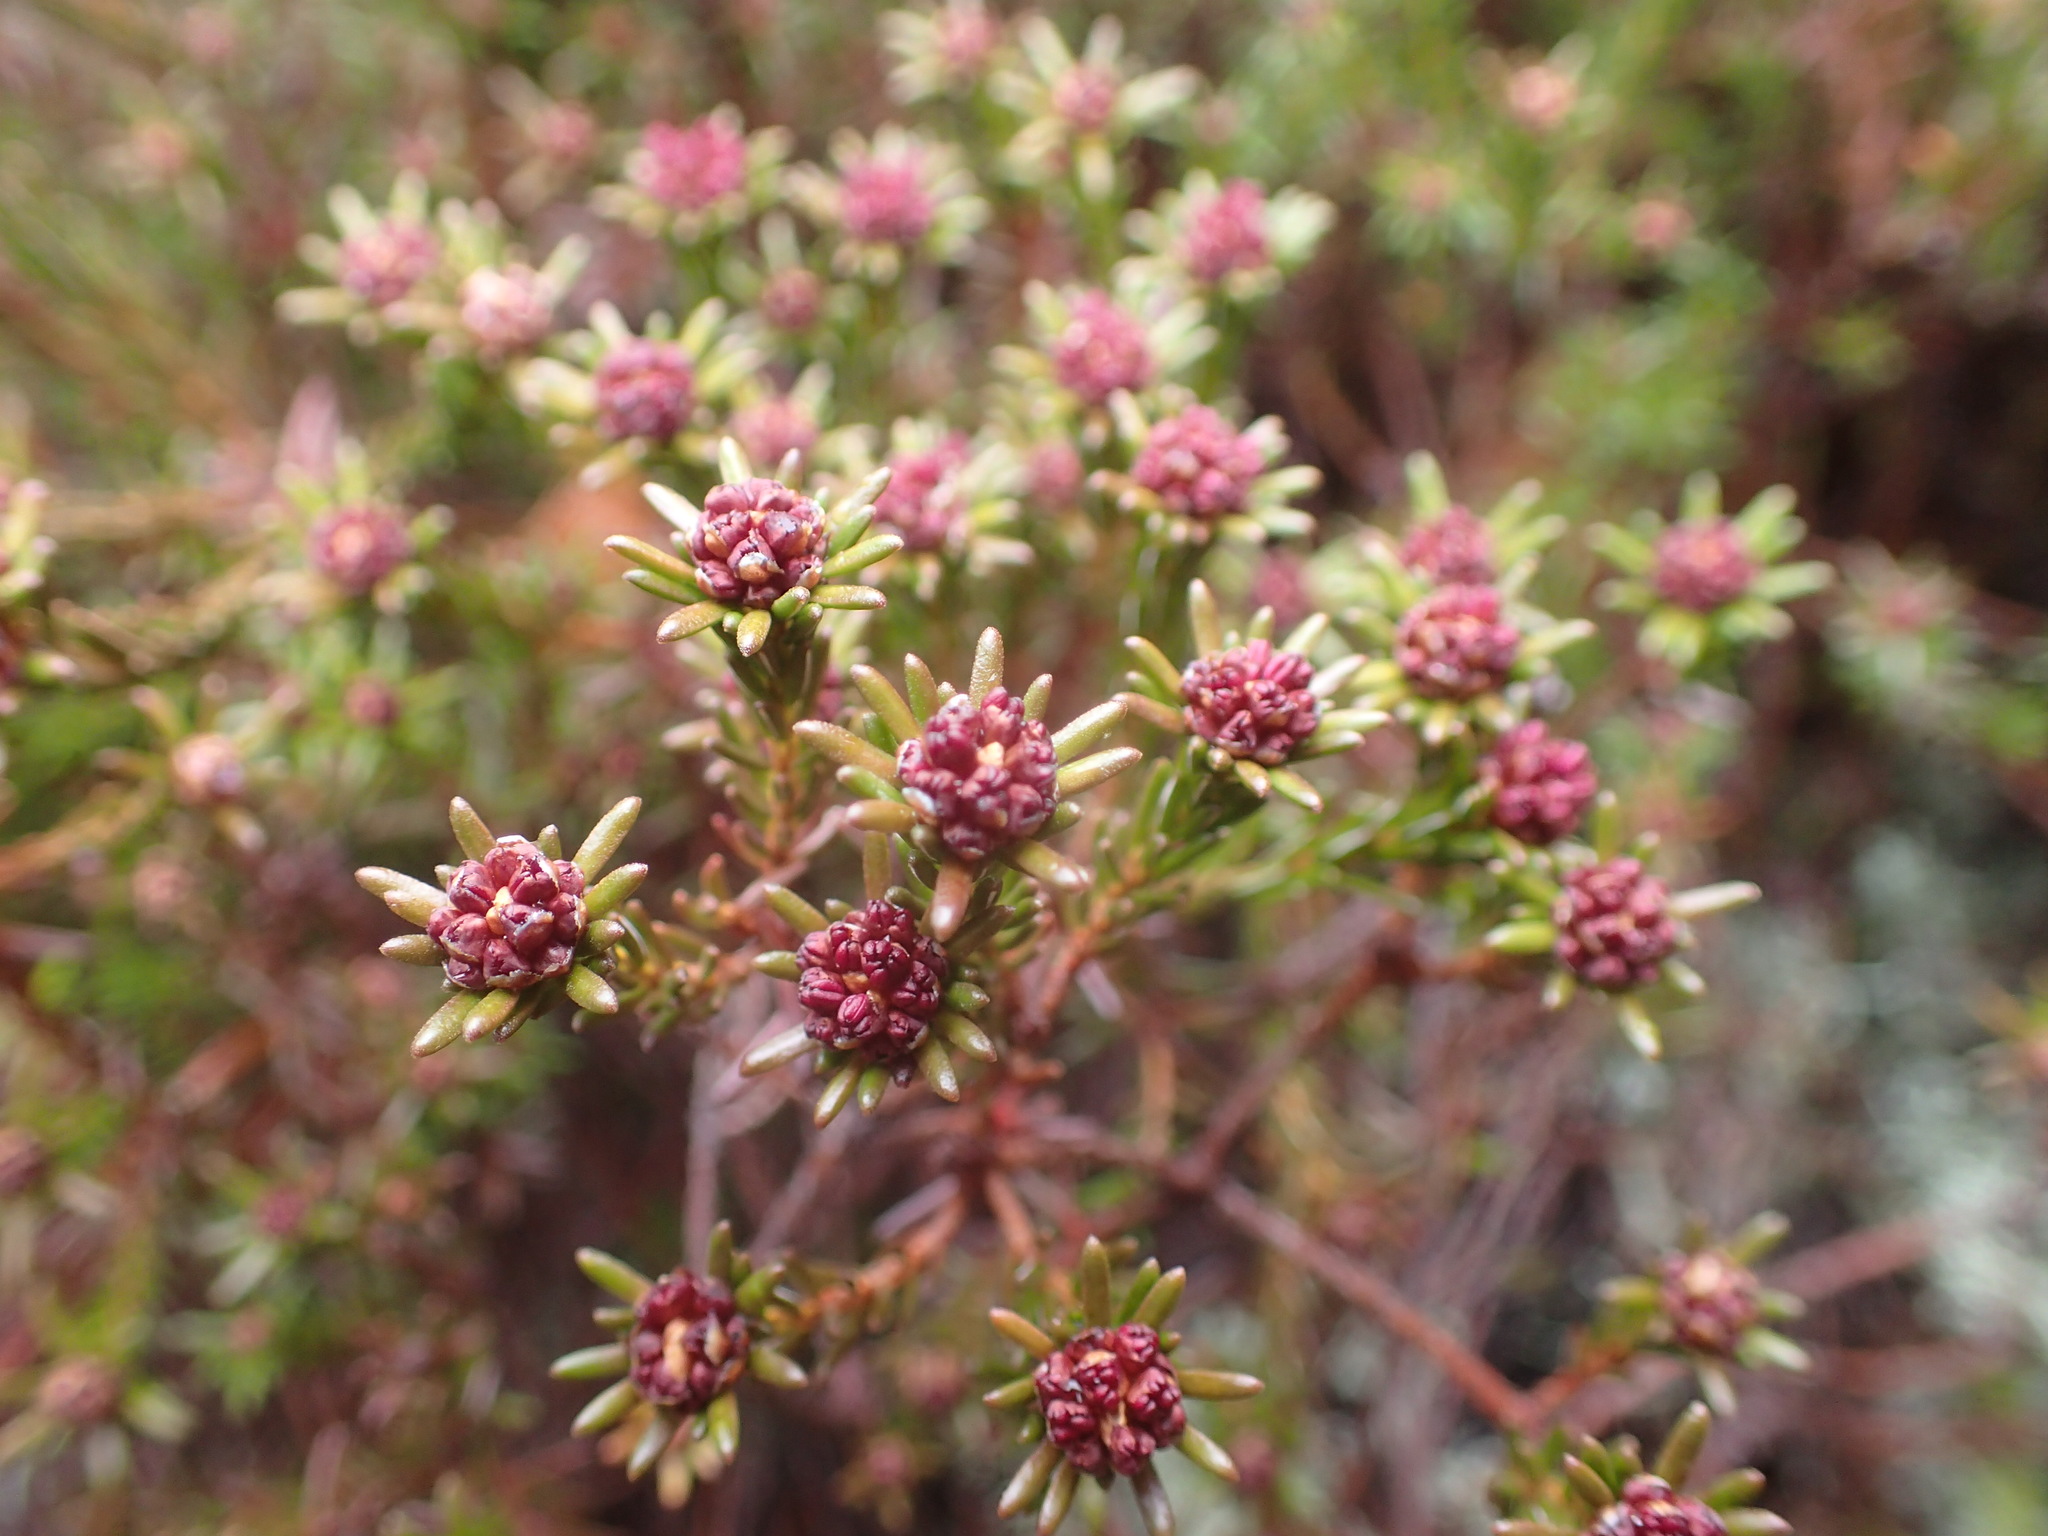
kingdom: Plantae
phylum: Tracheophyta
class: Magnoliopsida
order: Ericales
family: Ericaceae
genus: Corema
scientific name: Corema conradii
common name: Broom-crowberry
